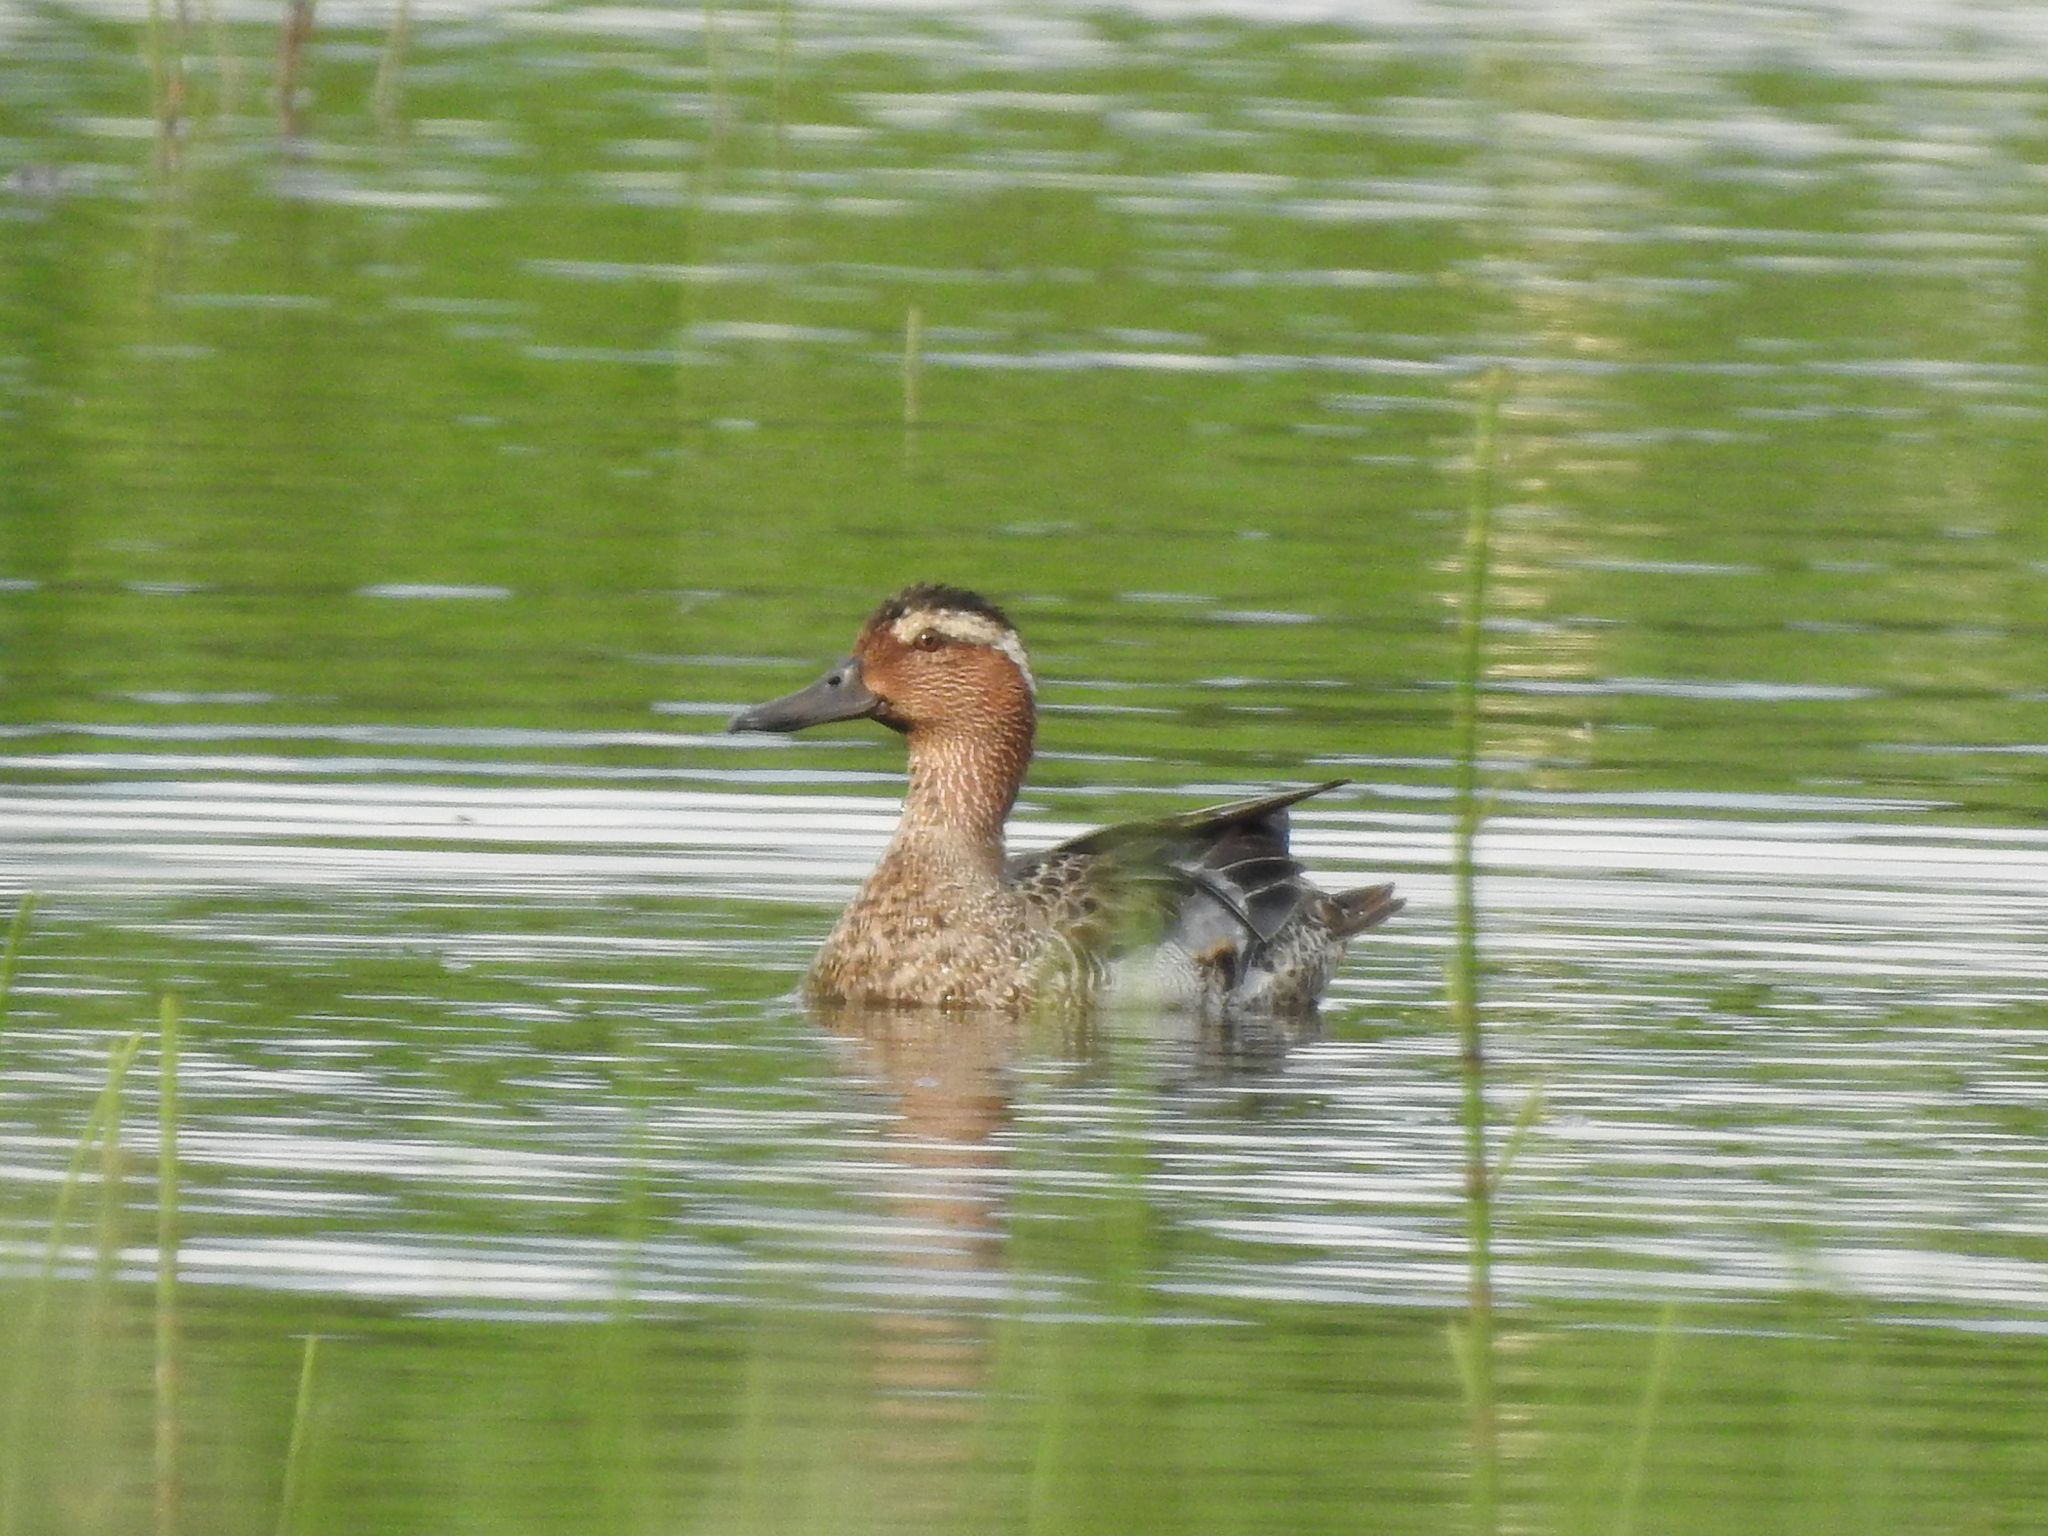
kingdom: Animalia
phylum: Chordata
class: Aves
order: Anseriformes
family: Anatidae
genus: Spatula
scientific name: Spatula querquedula
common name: Garganey
